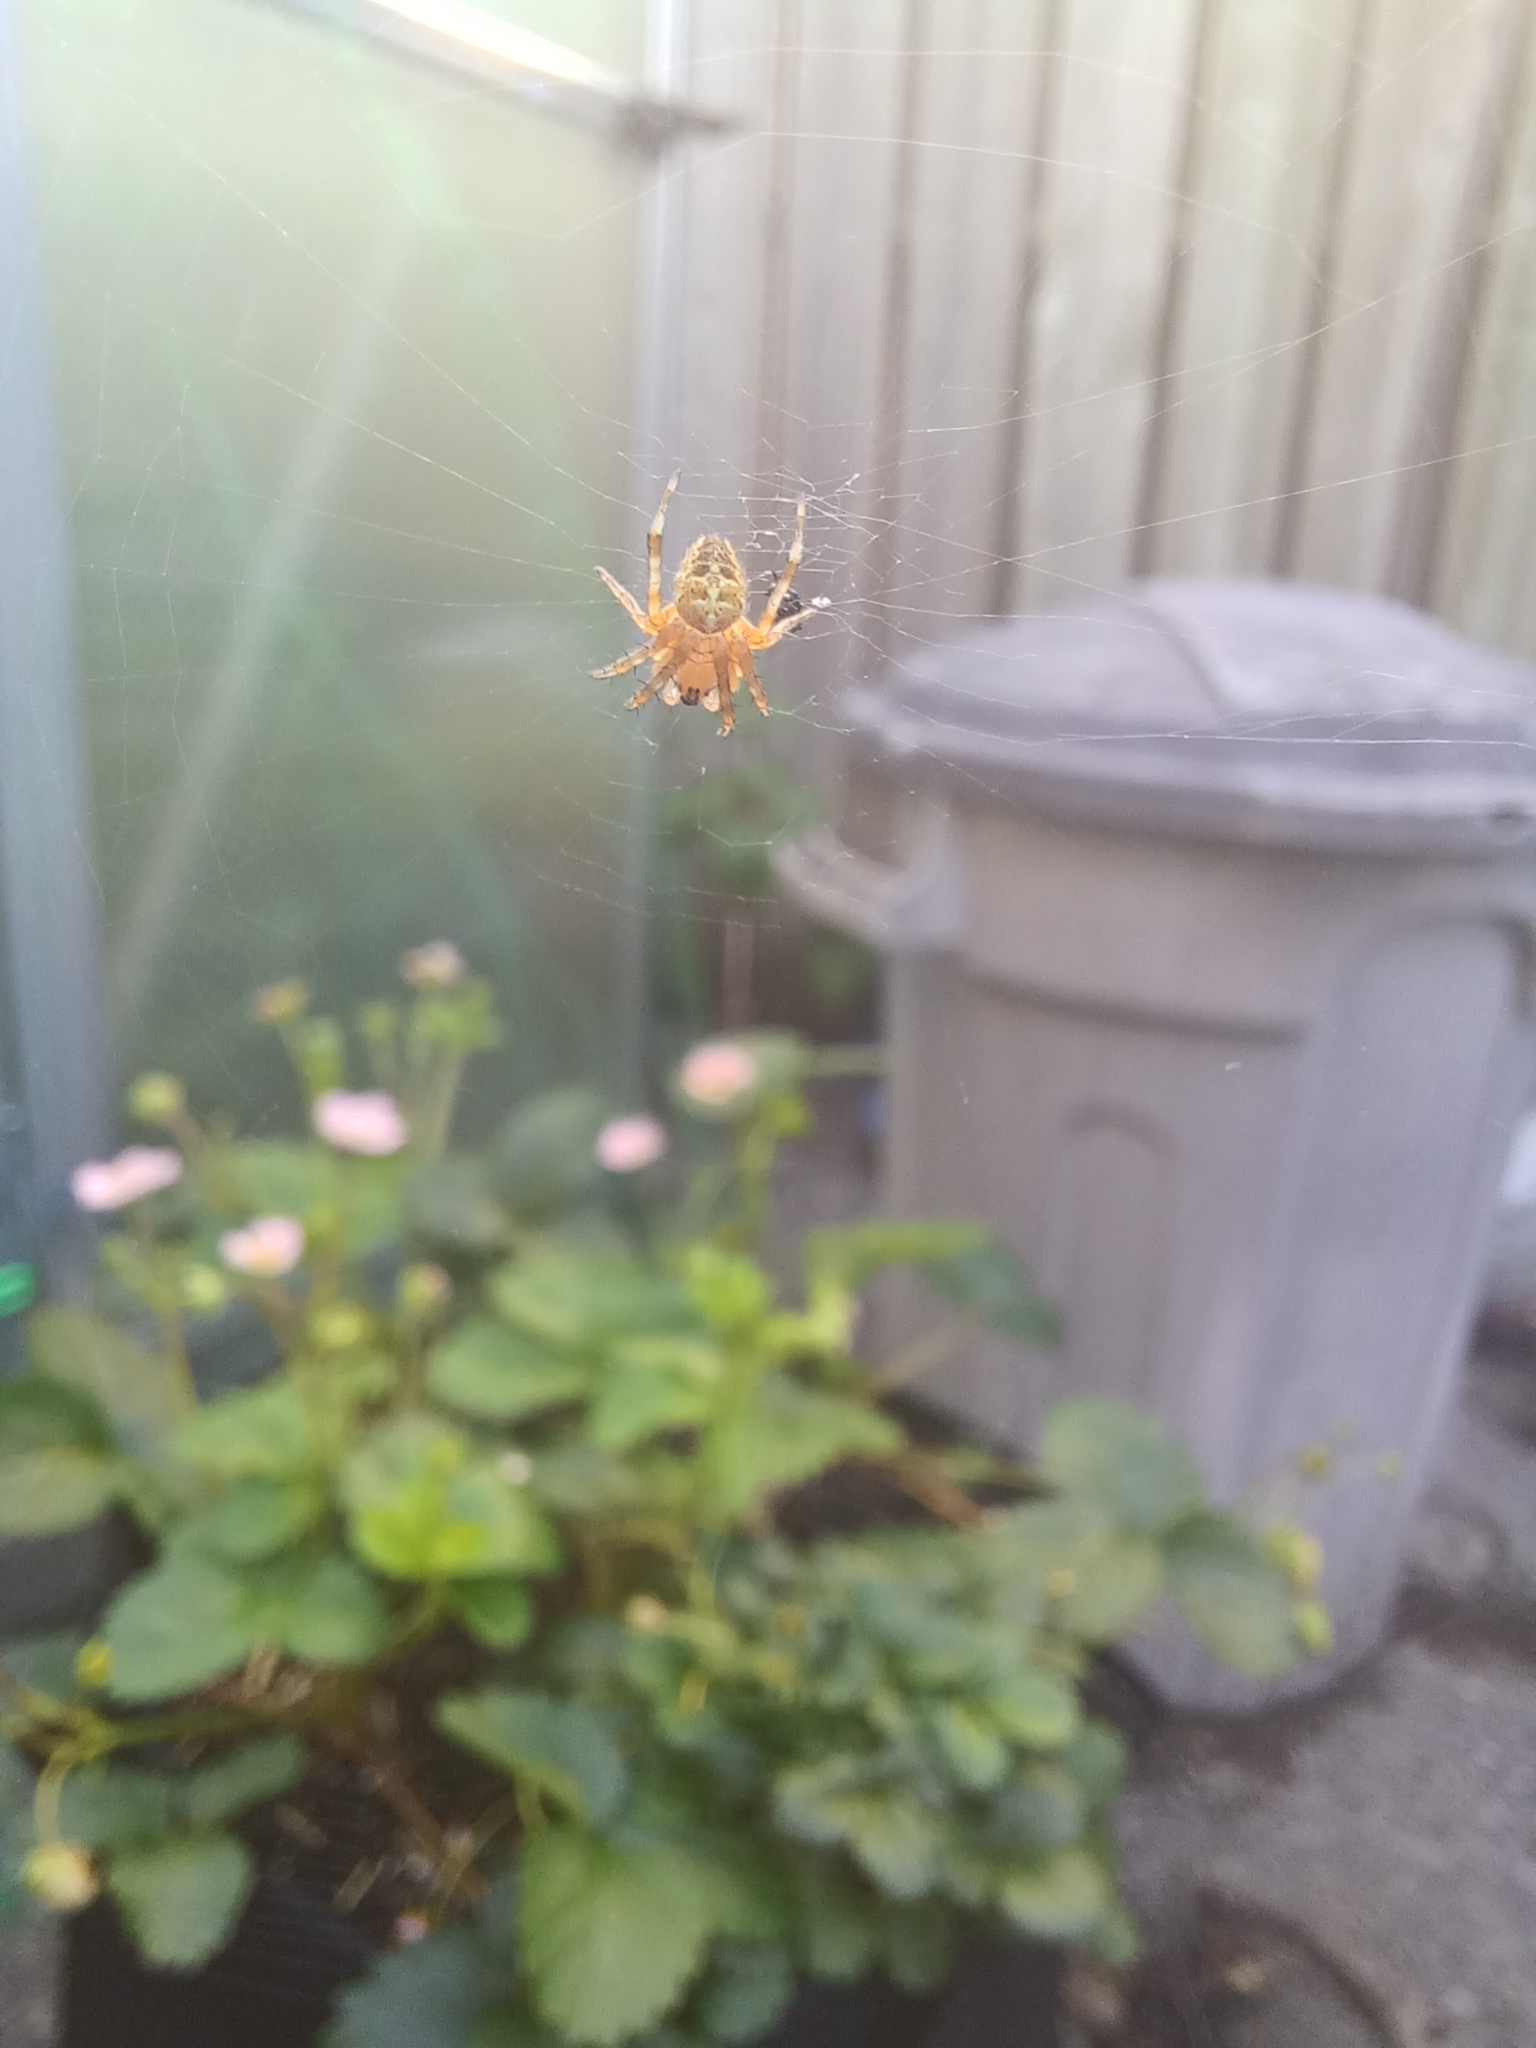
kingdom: Animalia
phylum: Arthropoda
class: Arachnida
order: Araneae
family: Araneidae
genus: Araneus
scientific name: Araneus diadematus
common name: Cross orbweaver
